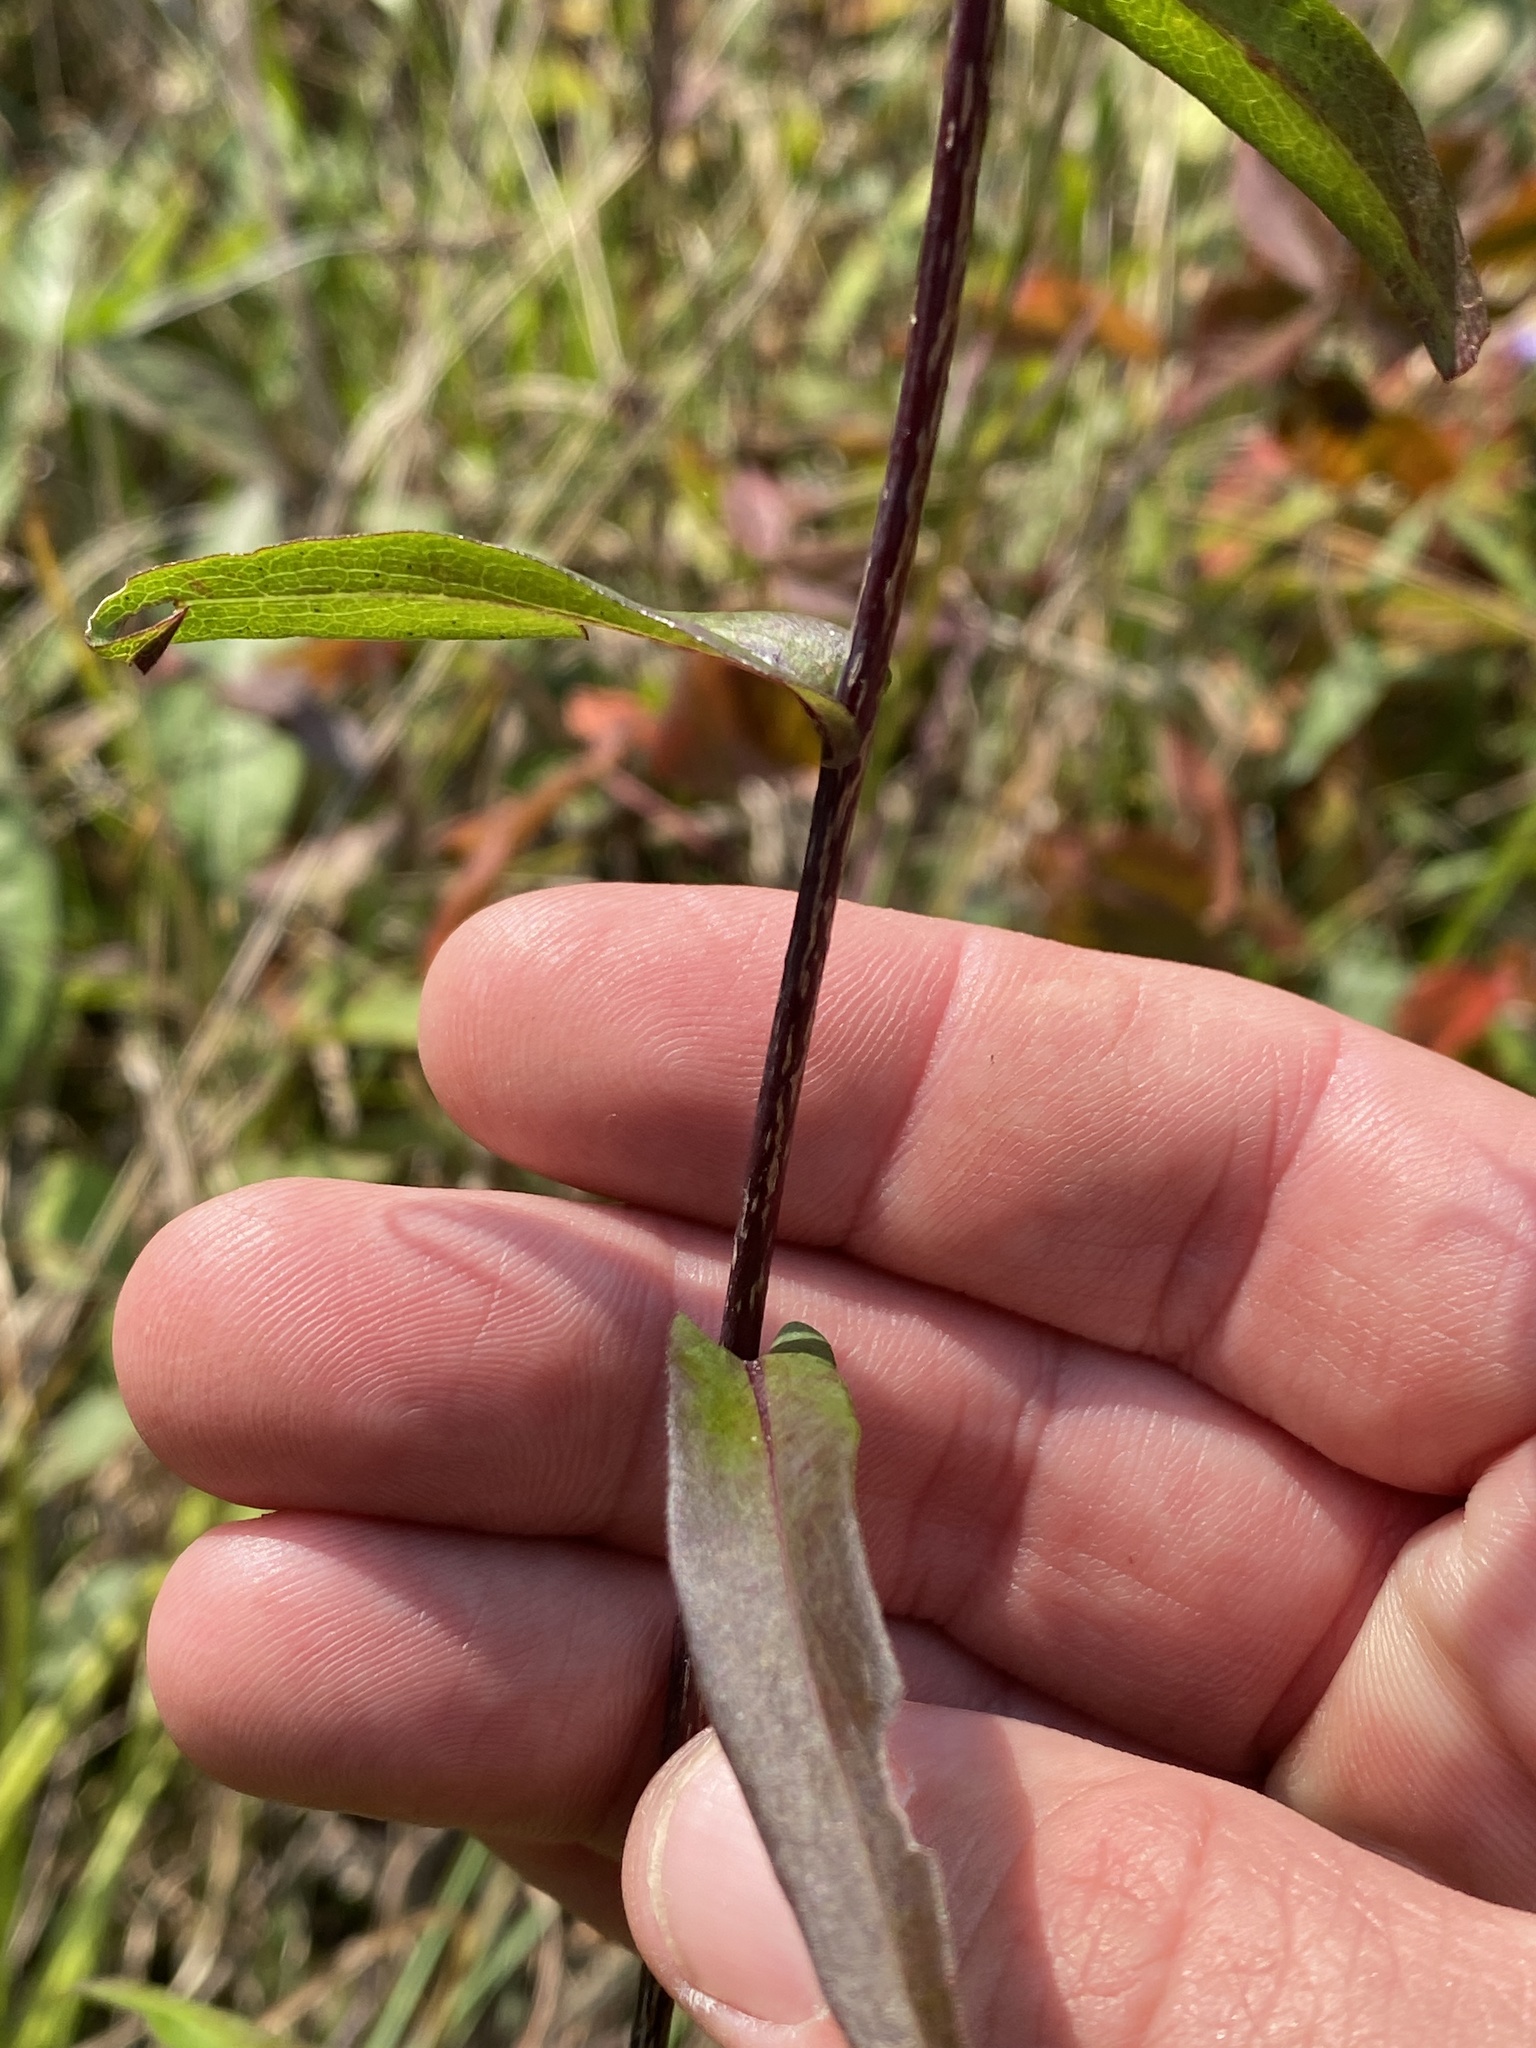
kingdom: Plantae
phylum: Tracheophyta
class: Magnoliopsida
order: Asterales
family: Asteraceae
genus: Symphyotrichum
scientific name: Symphyotrichum laeve
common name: Glaucous aster
